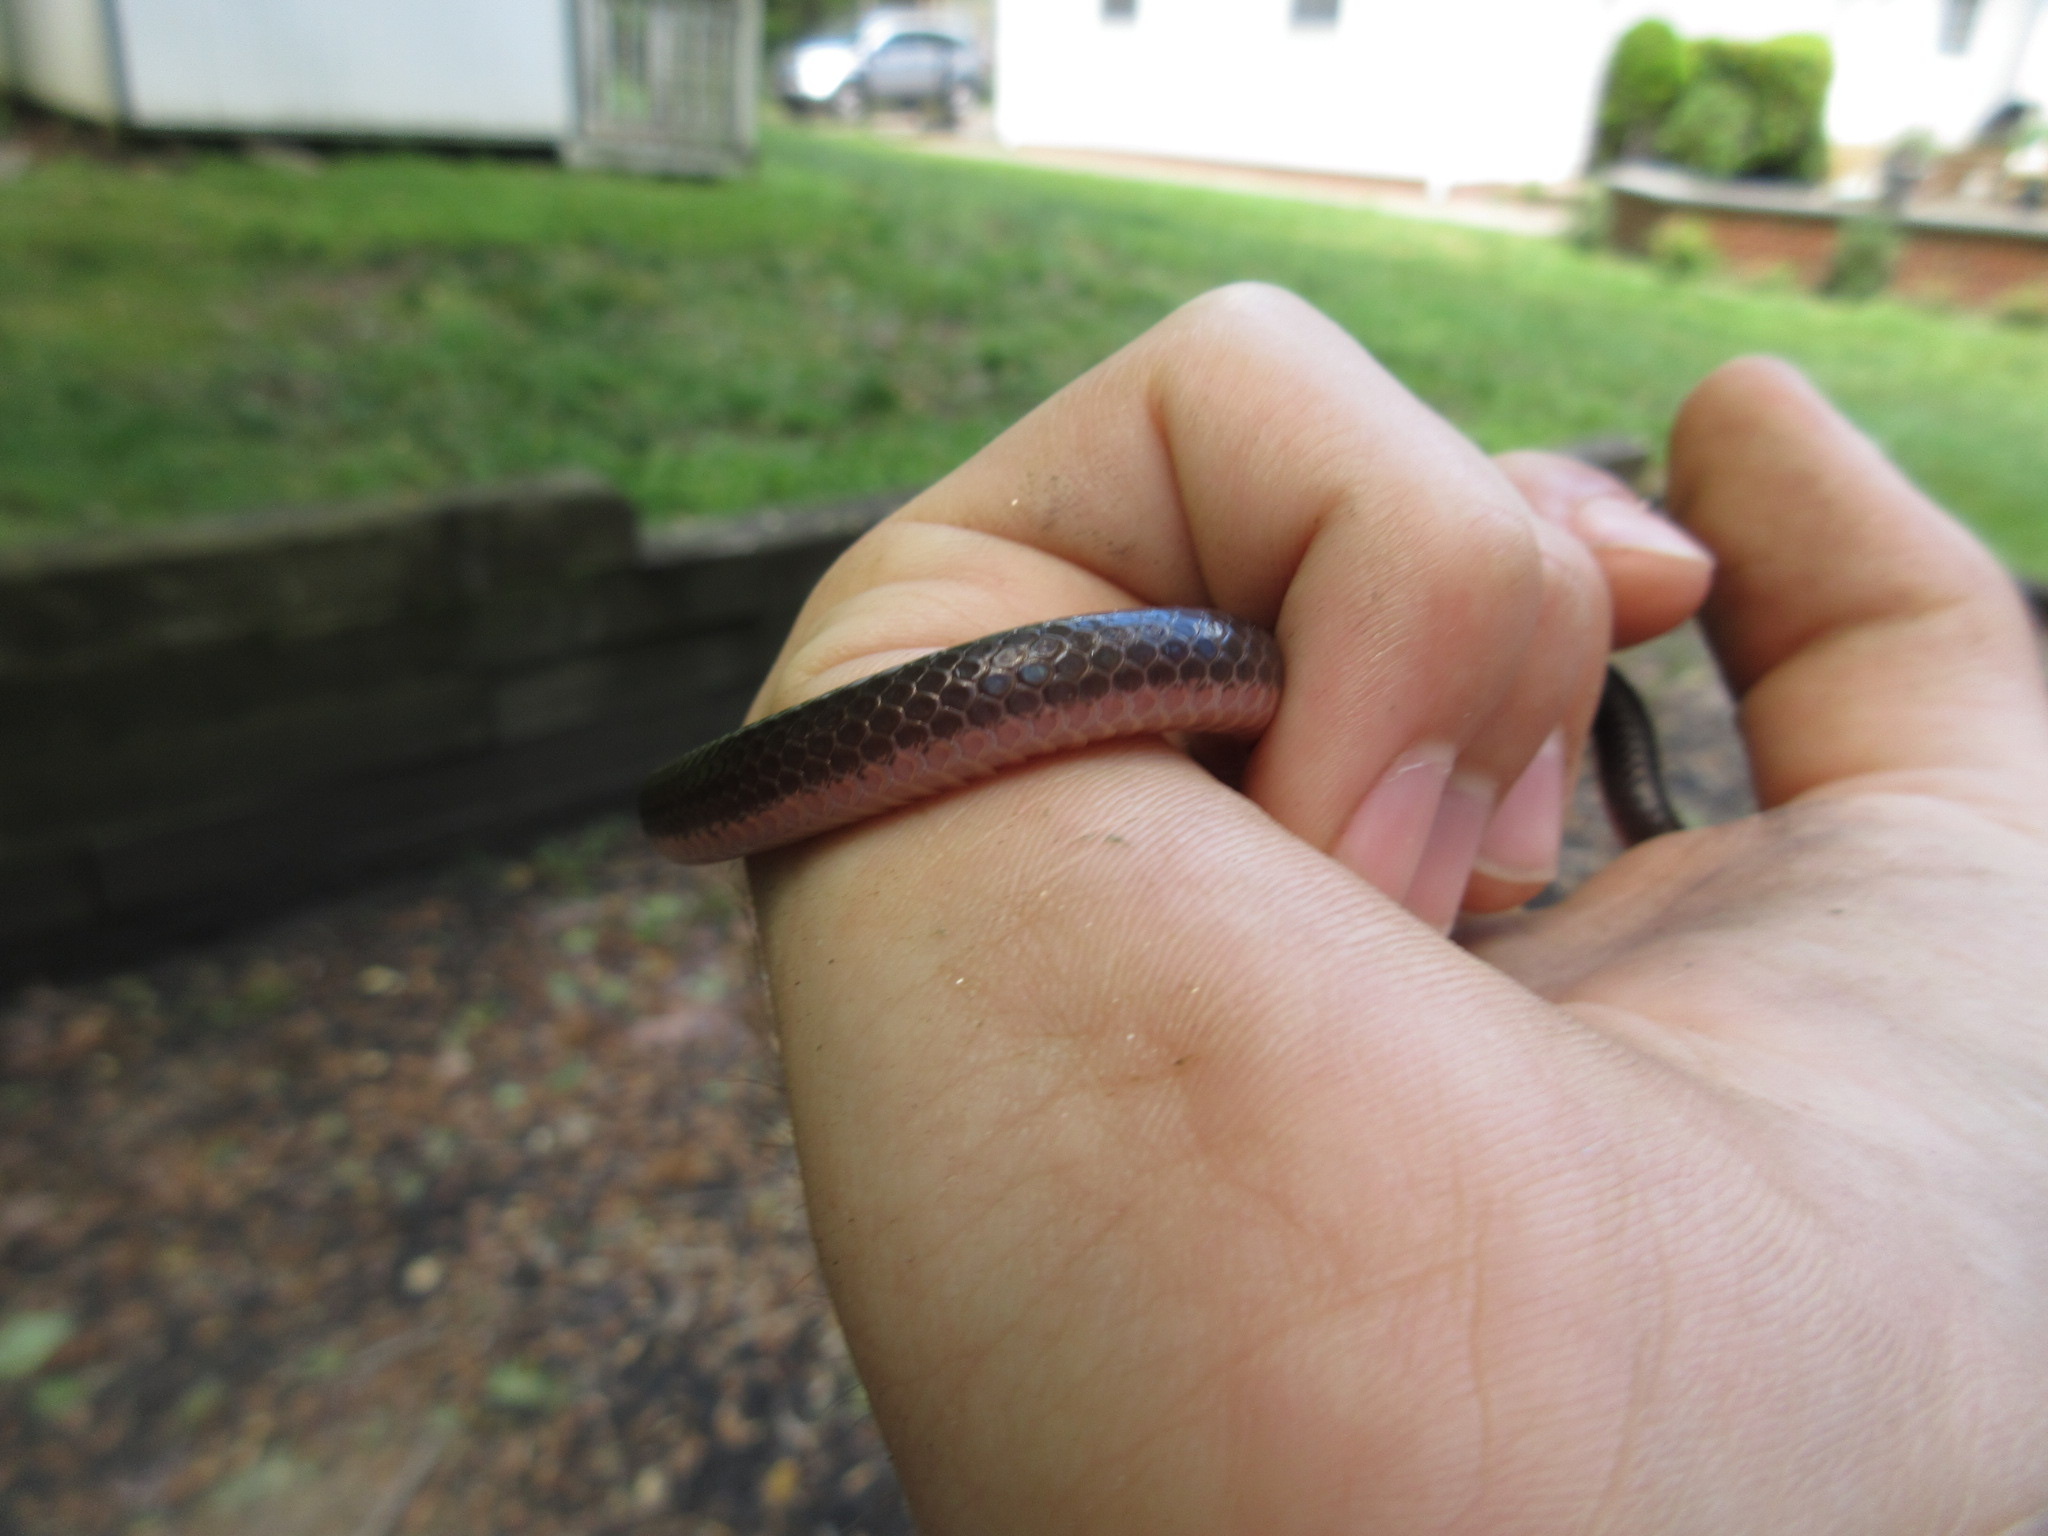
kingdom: Animalia
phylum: Chordata
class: Squamata
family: Colubridae
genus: Carphophis
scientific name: Carphophis amoenus
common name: Eastern worm snake
